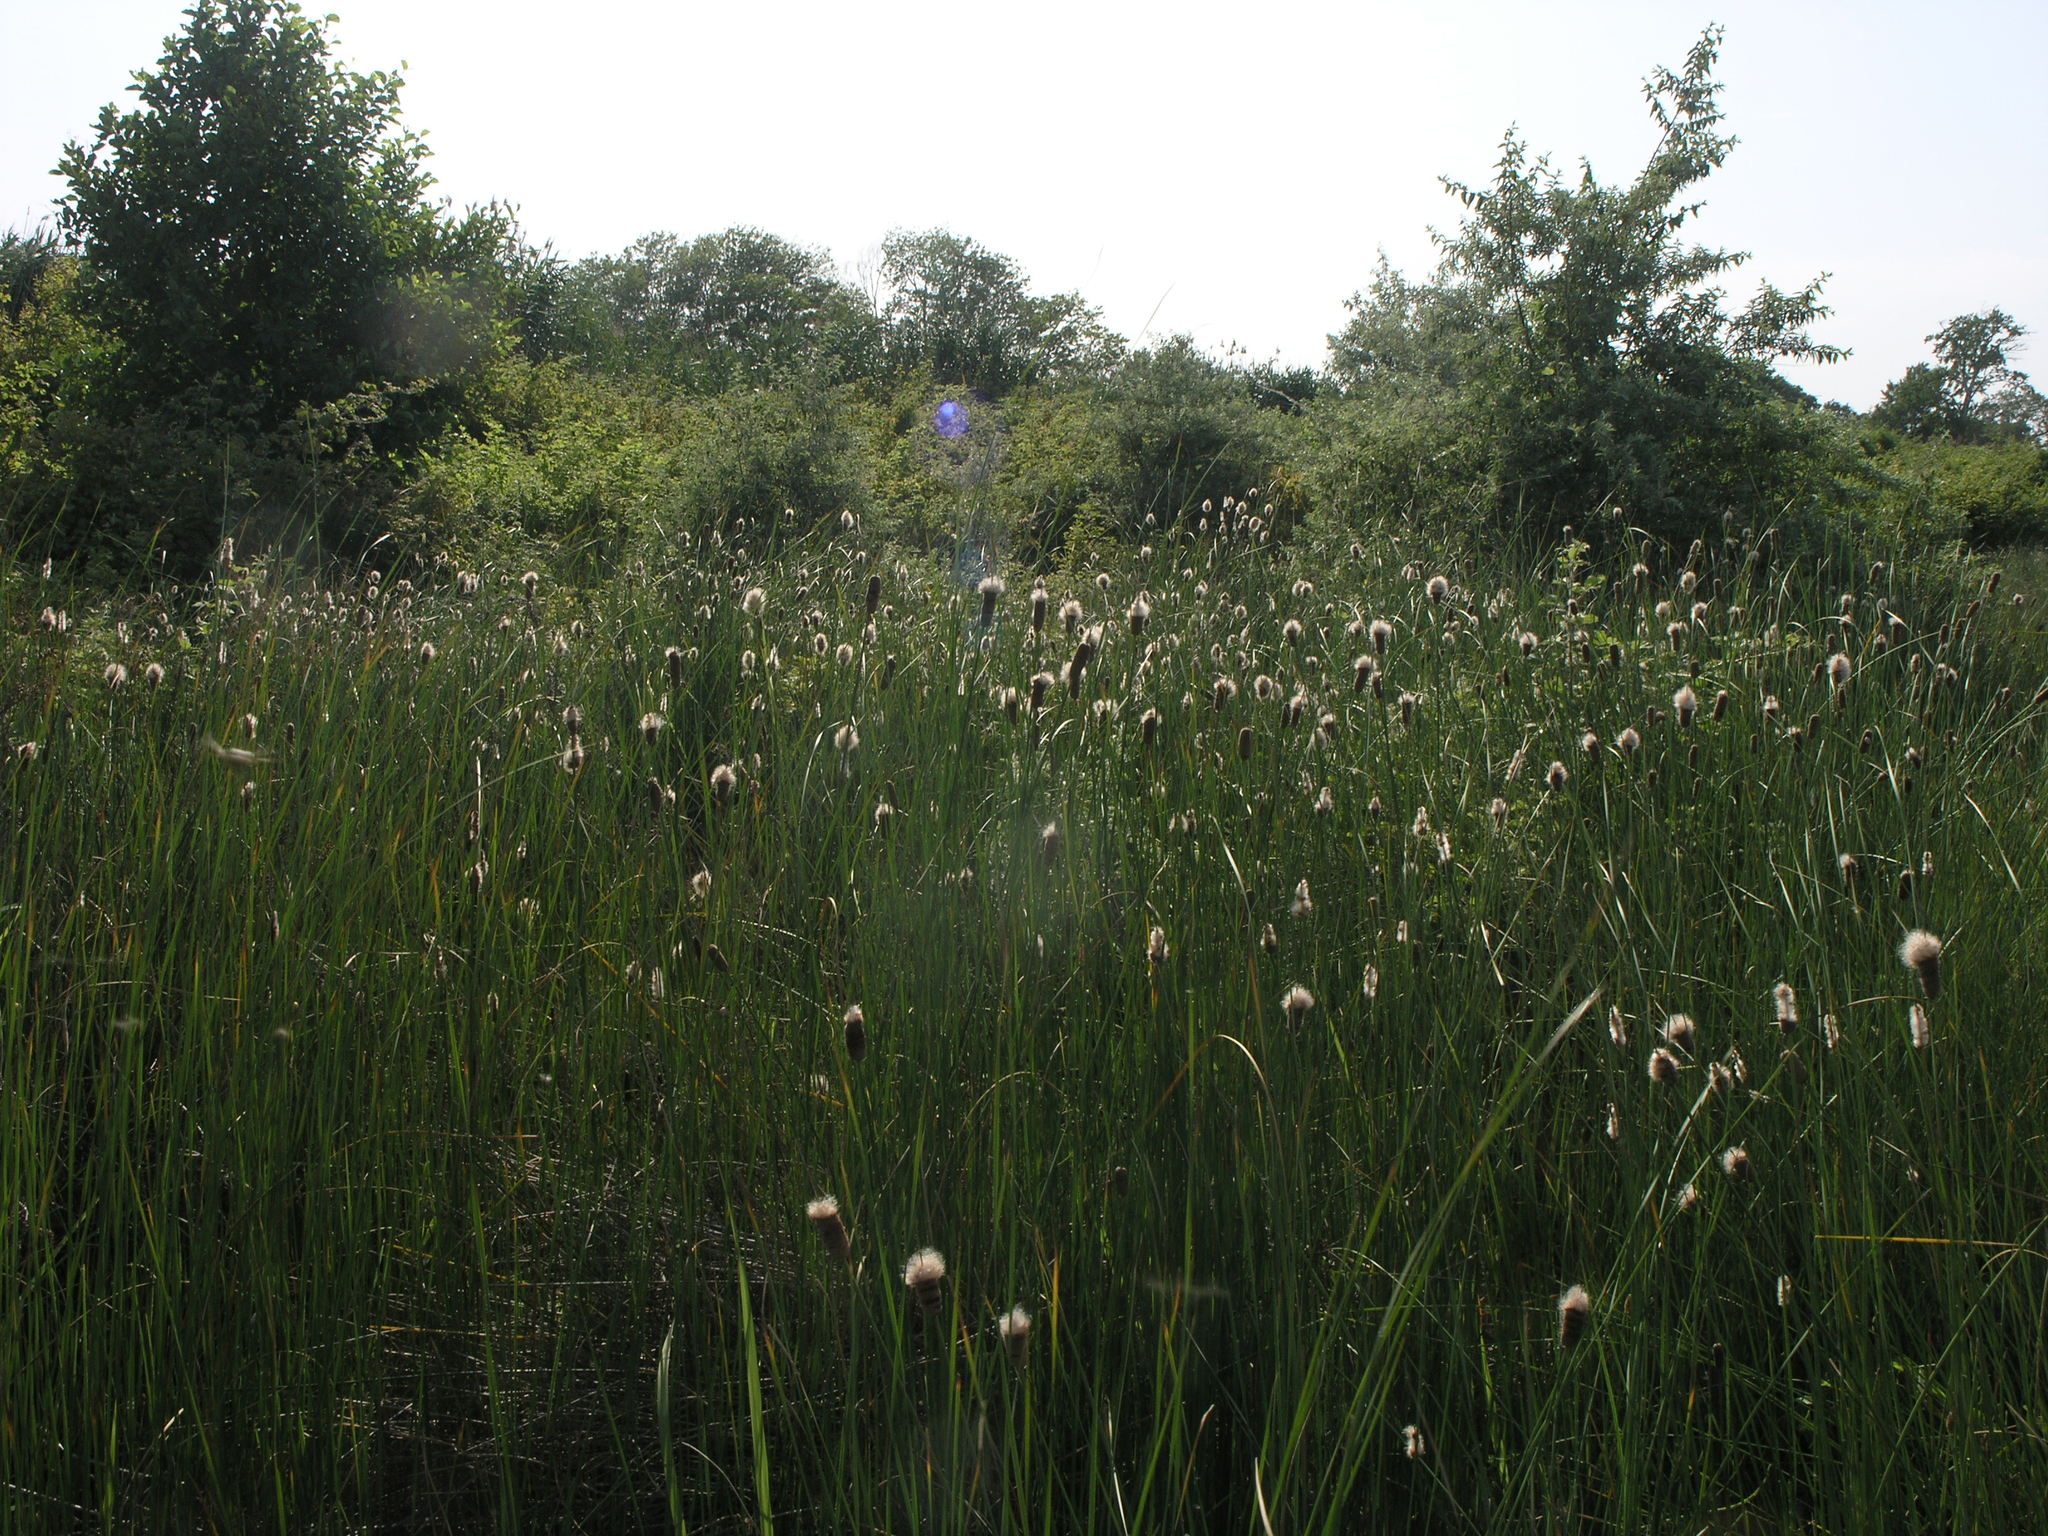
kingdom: Plantae
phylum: Tracheophyta
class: Liliopsida
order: Poales
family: Typhaceae
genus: Typha
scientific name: Typha laxmannii
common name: Laxman’s bulrush
